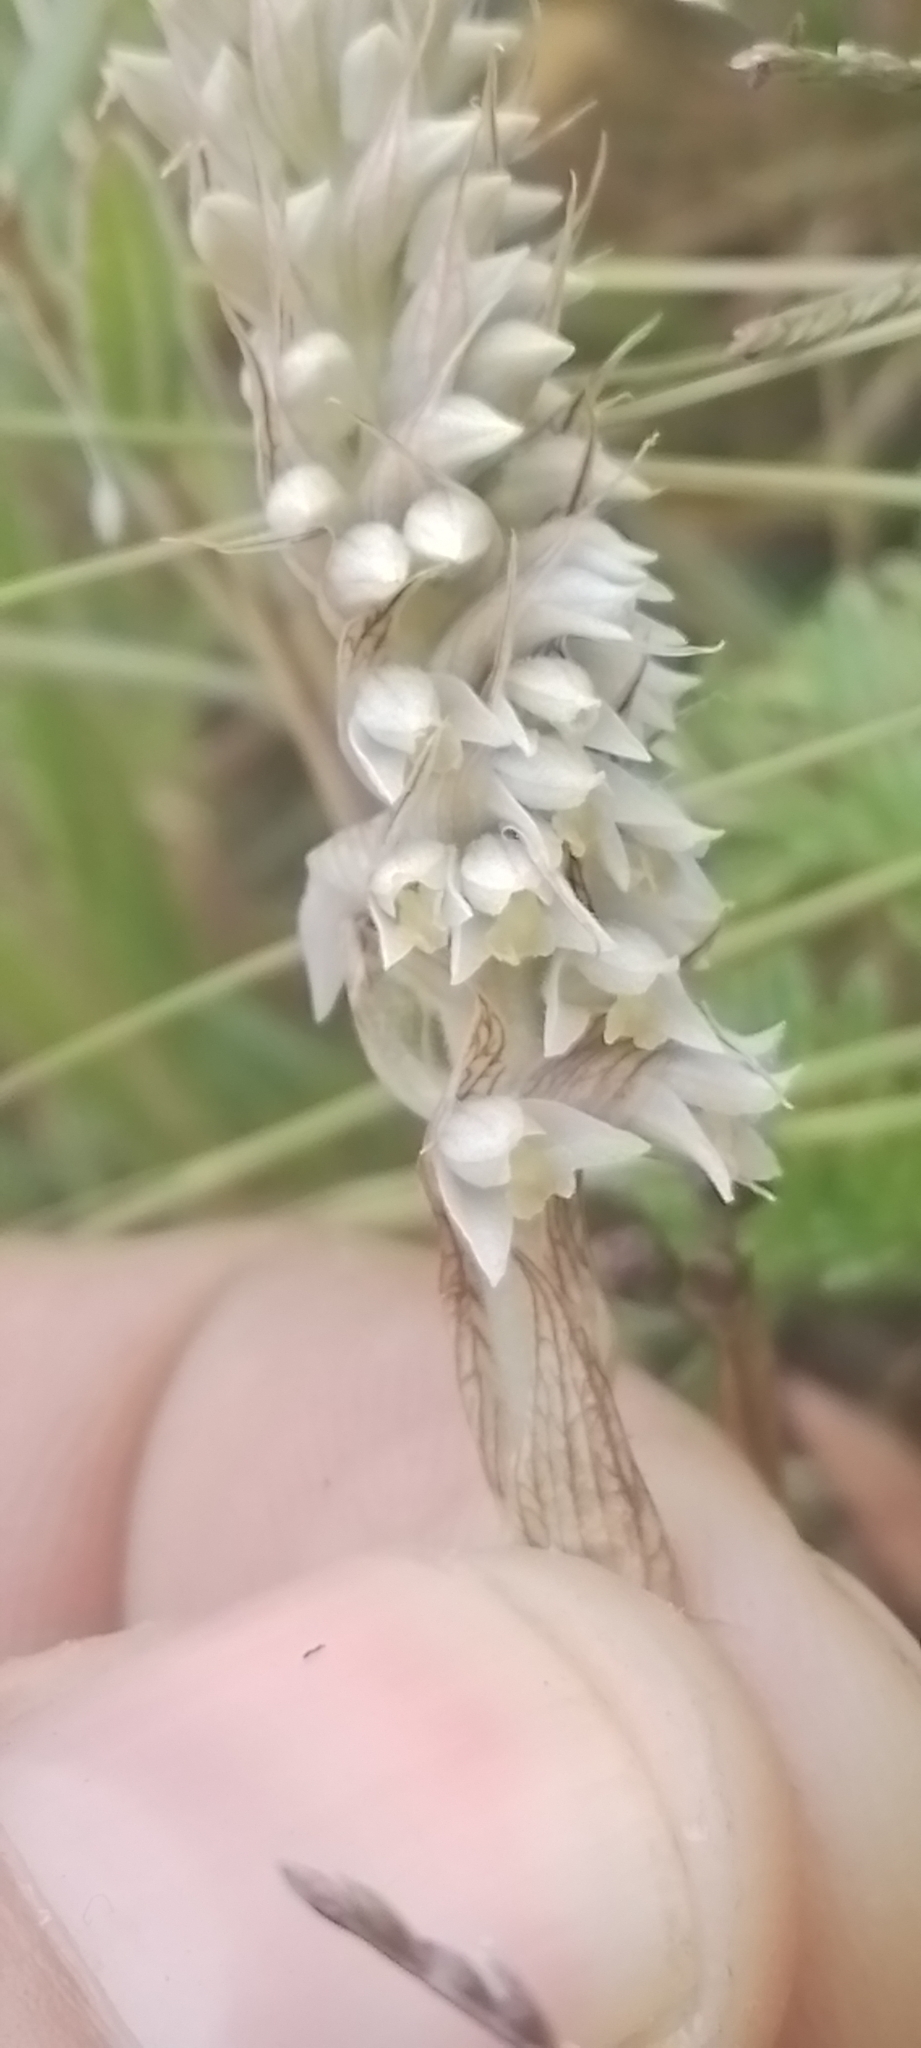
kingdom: Plantae
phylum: Tracheophyta
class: Liliopsida
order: Asparagales
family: Orchidaceae
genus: Brachystele
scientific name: Brachystele camporum
